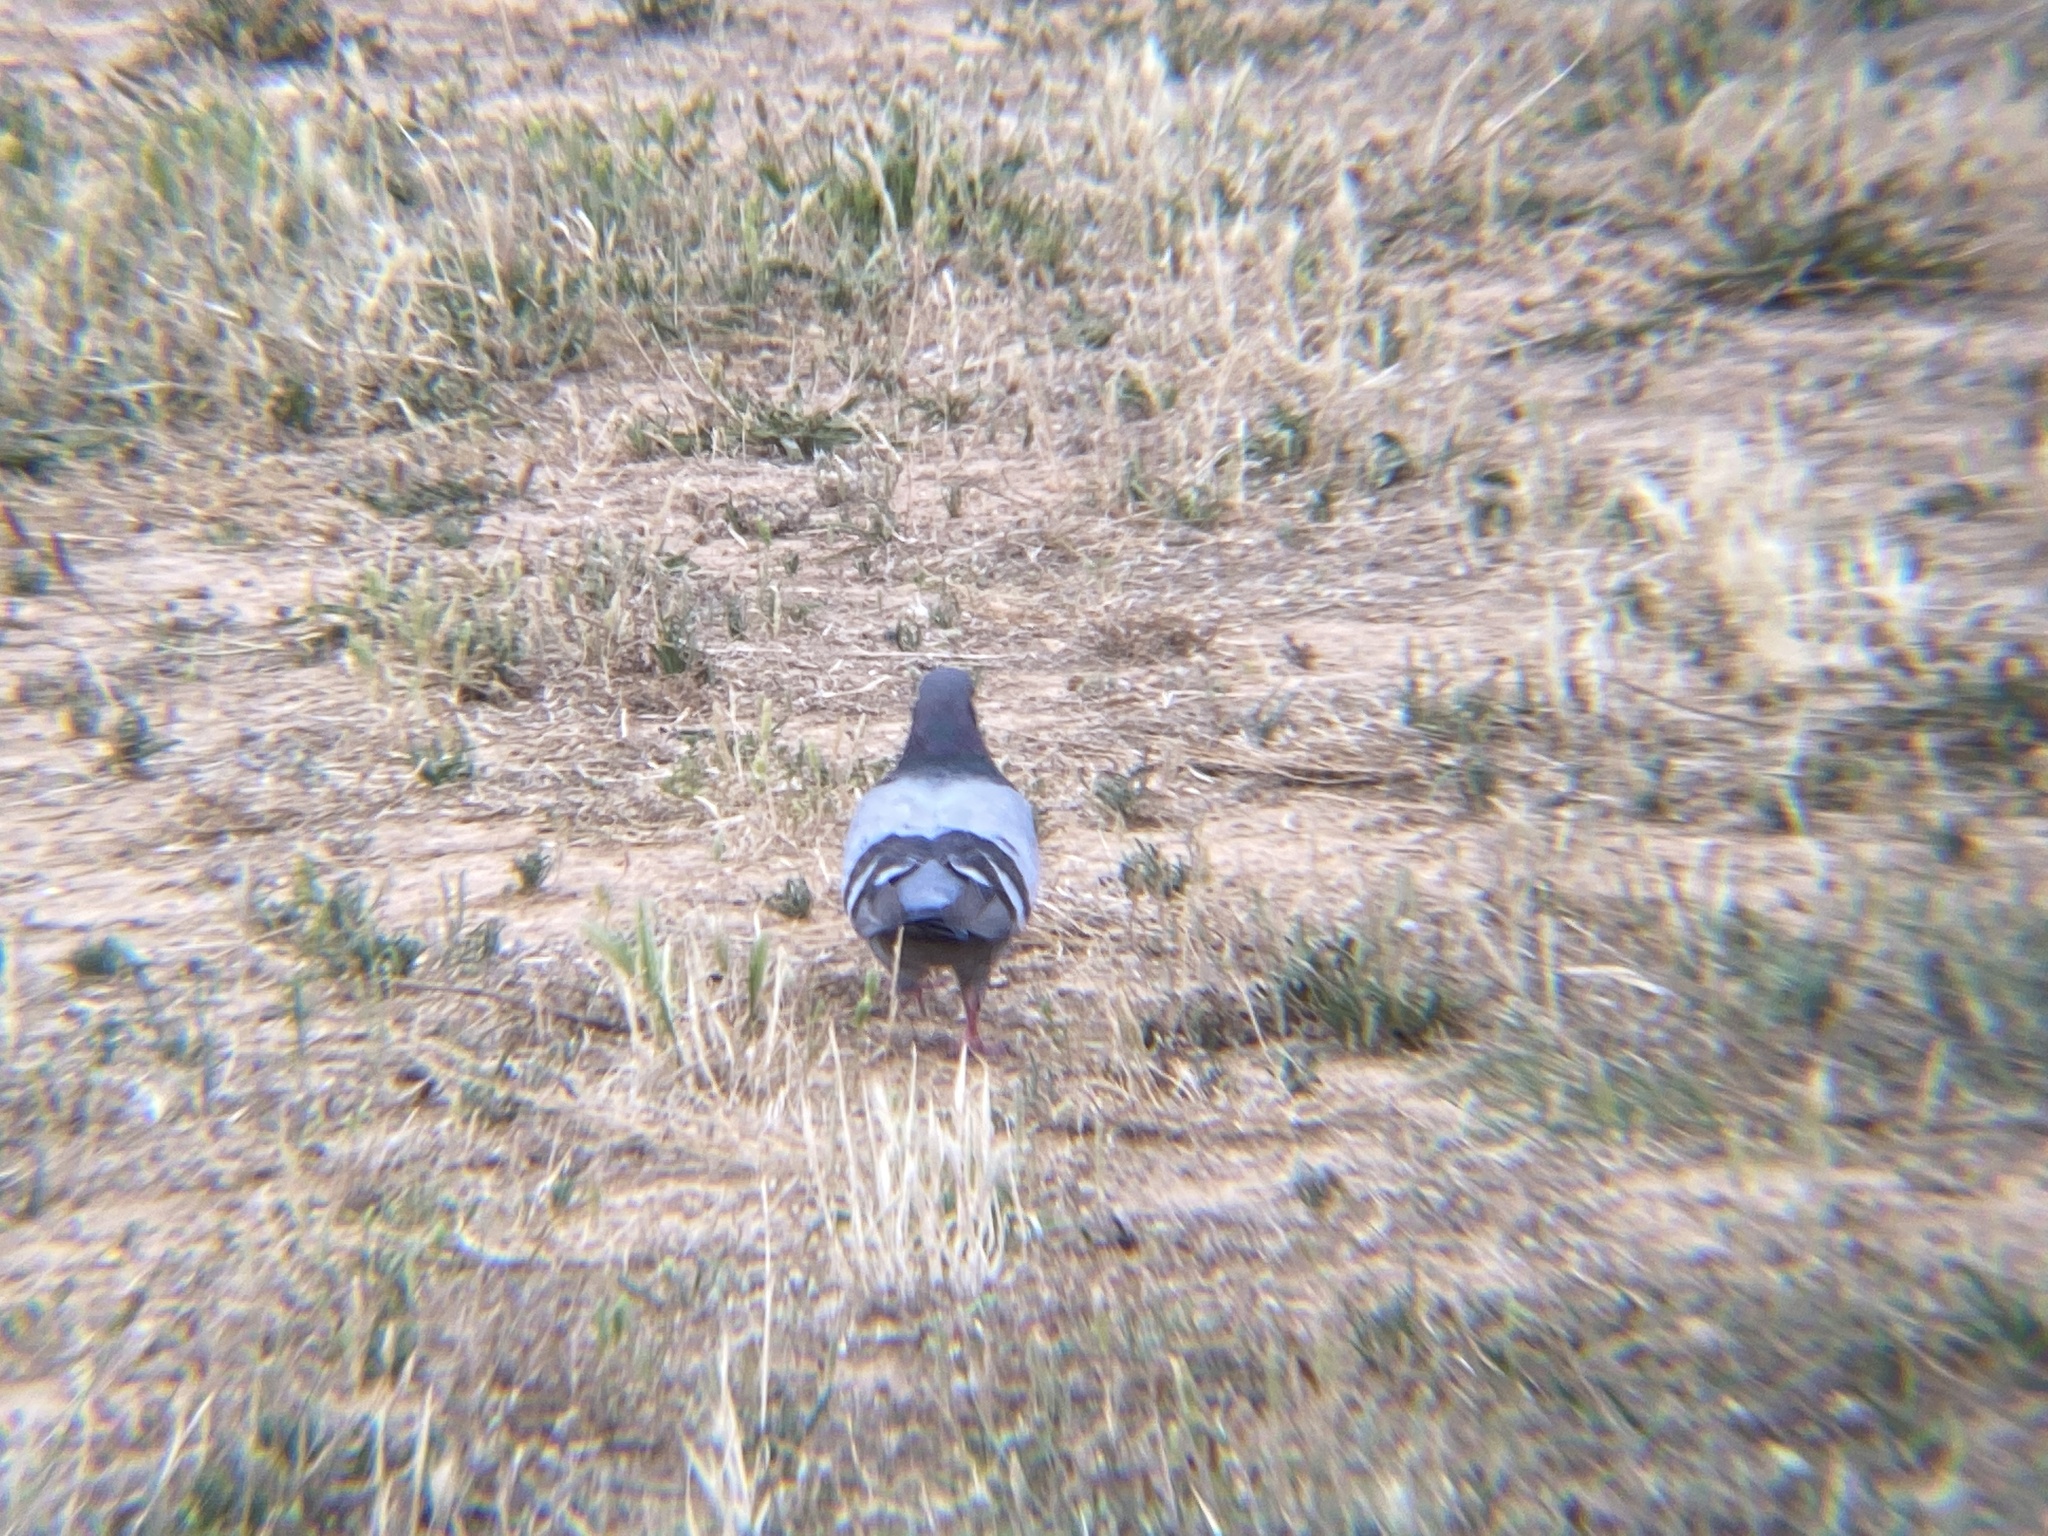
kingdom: Animalia
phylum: Chordata
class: Aves
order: Columbiformes
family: Columbidae
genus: Columba
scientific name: Columba livia
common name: Rock pigeon
